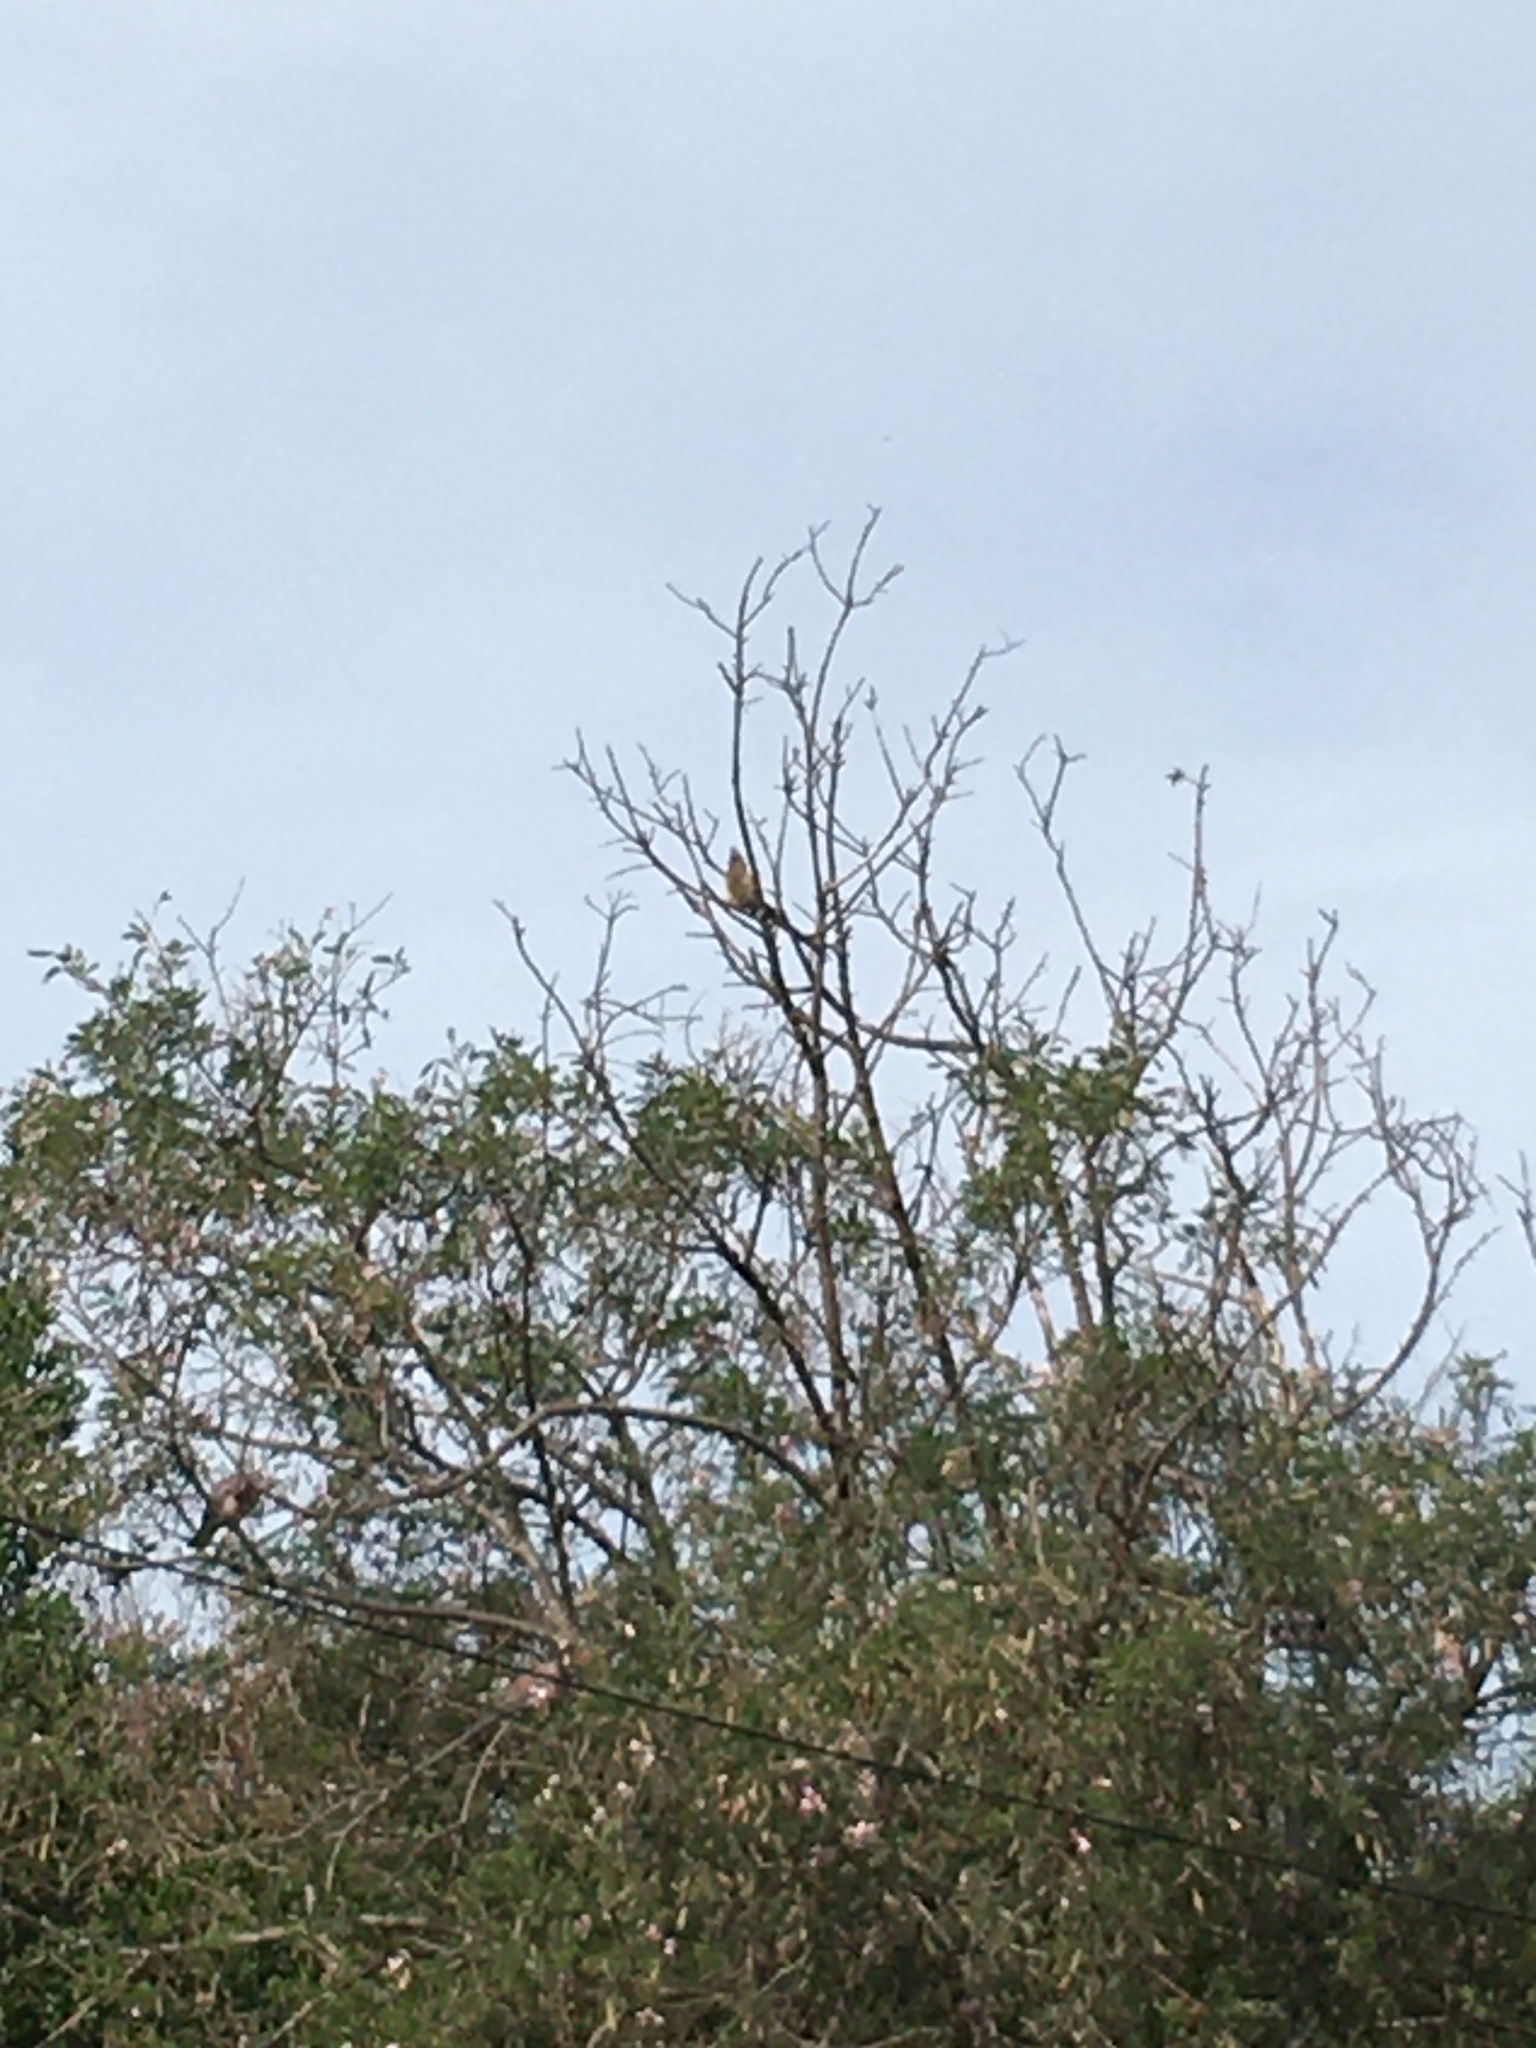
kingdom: Animalia
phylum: Chordata
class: Aves
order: Coliiformes
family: Coliidae
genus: Colius
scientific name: Colius striatus
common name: Speckled mousebird
